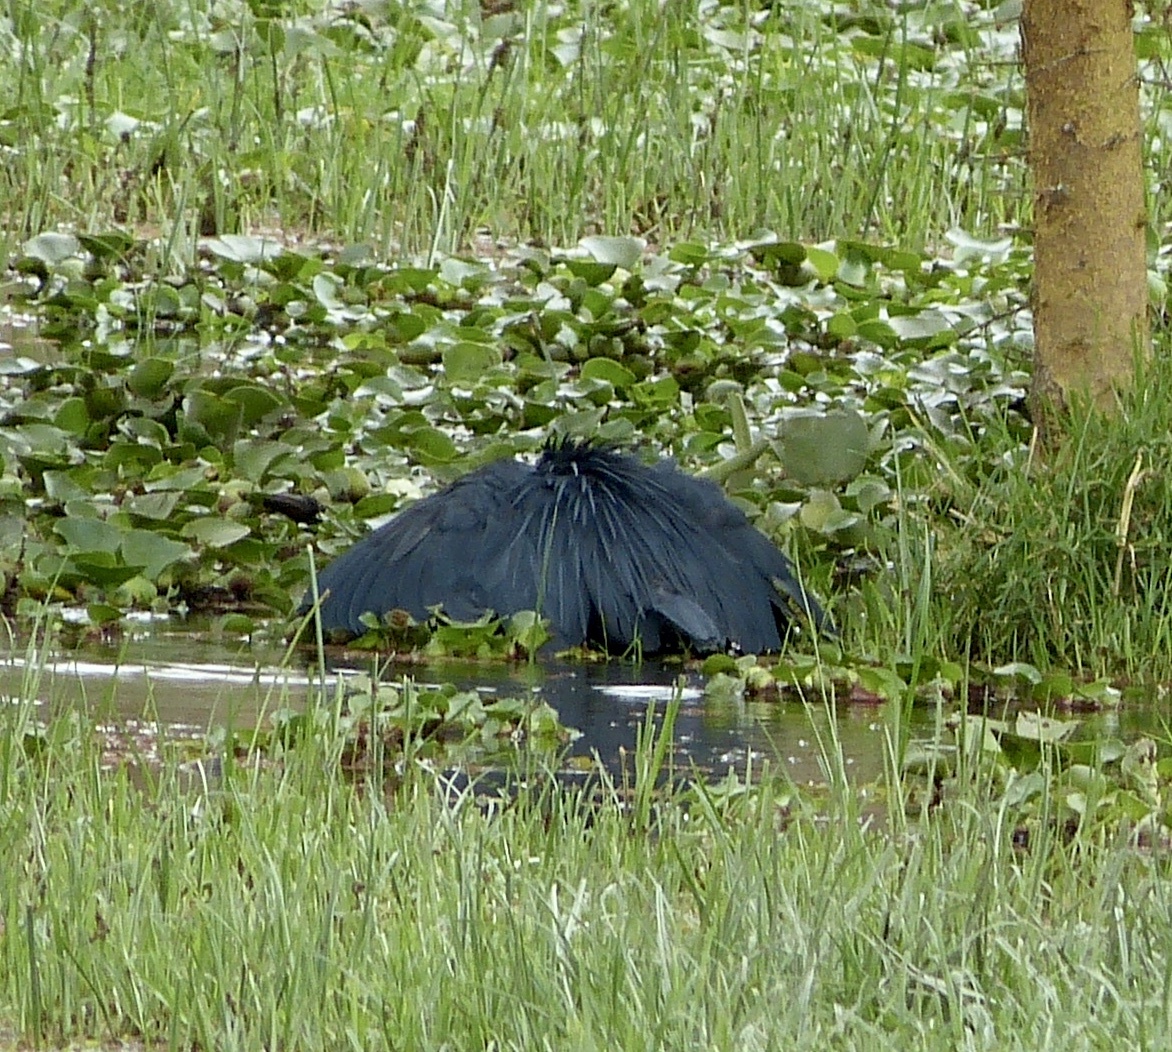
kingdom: Animalia
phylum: Chordata
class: Aves
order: Pelecaniformes
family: Ardeidae
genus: Egretta
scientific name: Egretta ardesiaca
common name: Black heron
